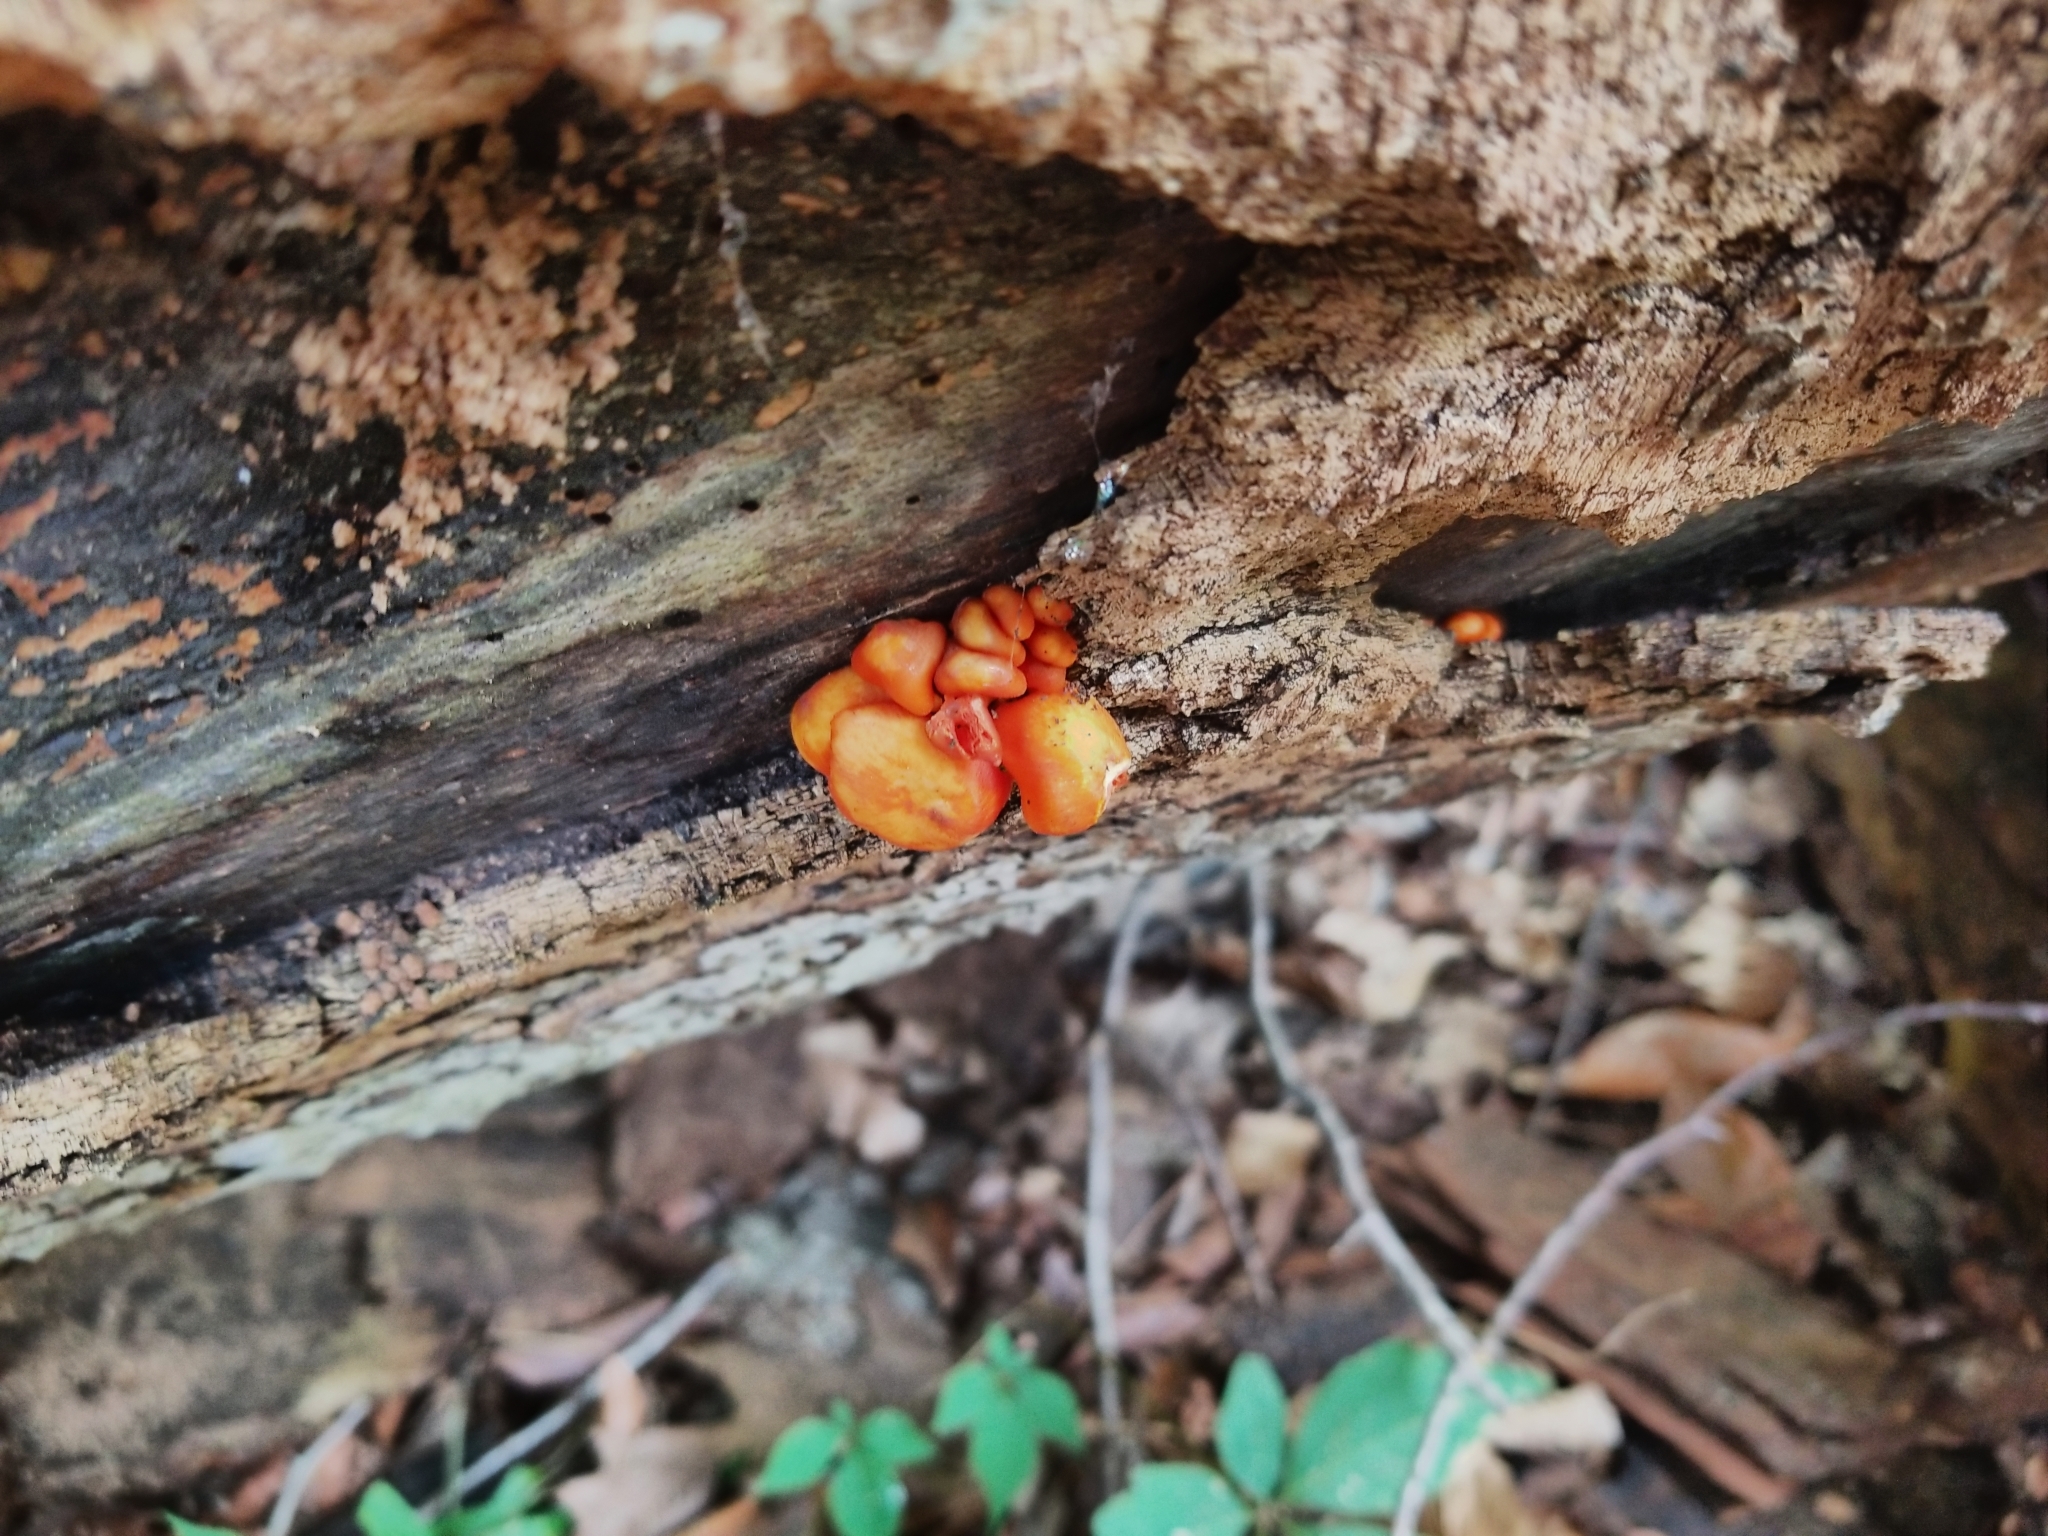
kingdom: Fungi
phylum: Basidiomycota
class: Agaricomycetes
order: Agaricales
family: Omphalotaceae
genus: Omphalotus
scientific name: Omphalotus illudens
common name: Jack o lantern
